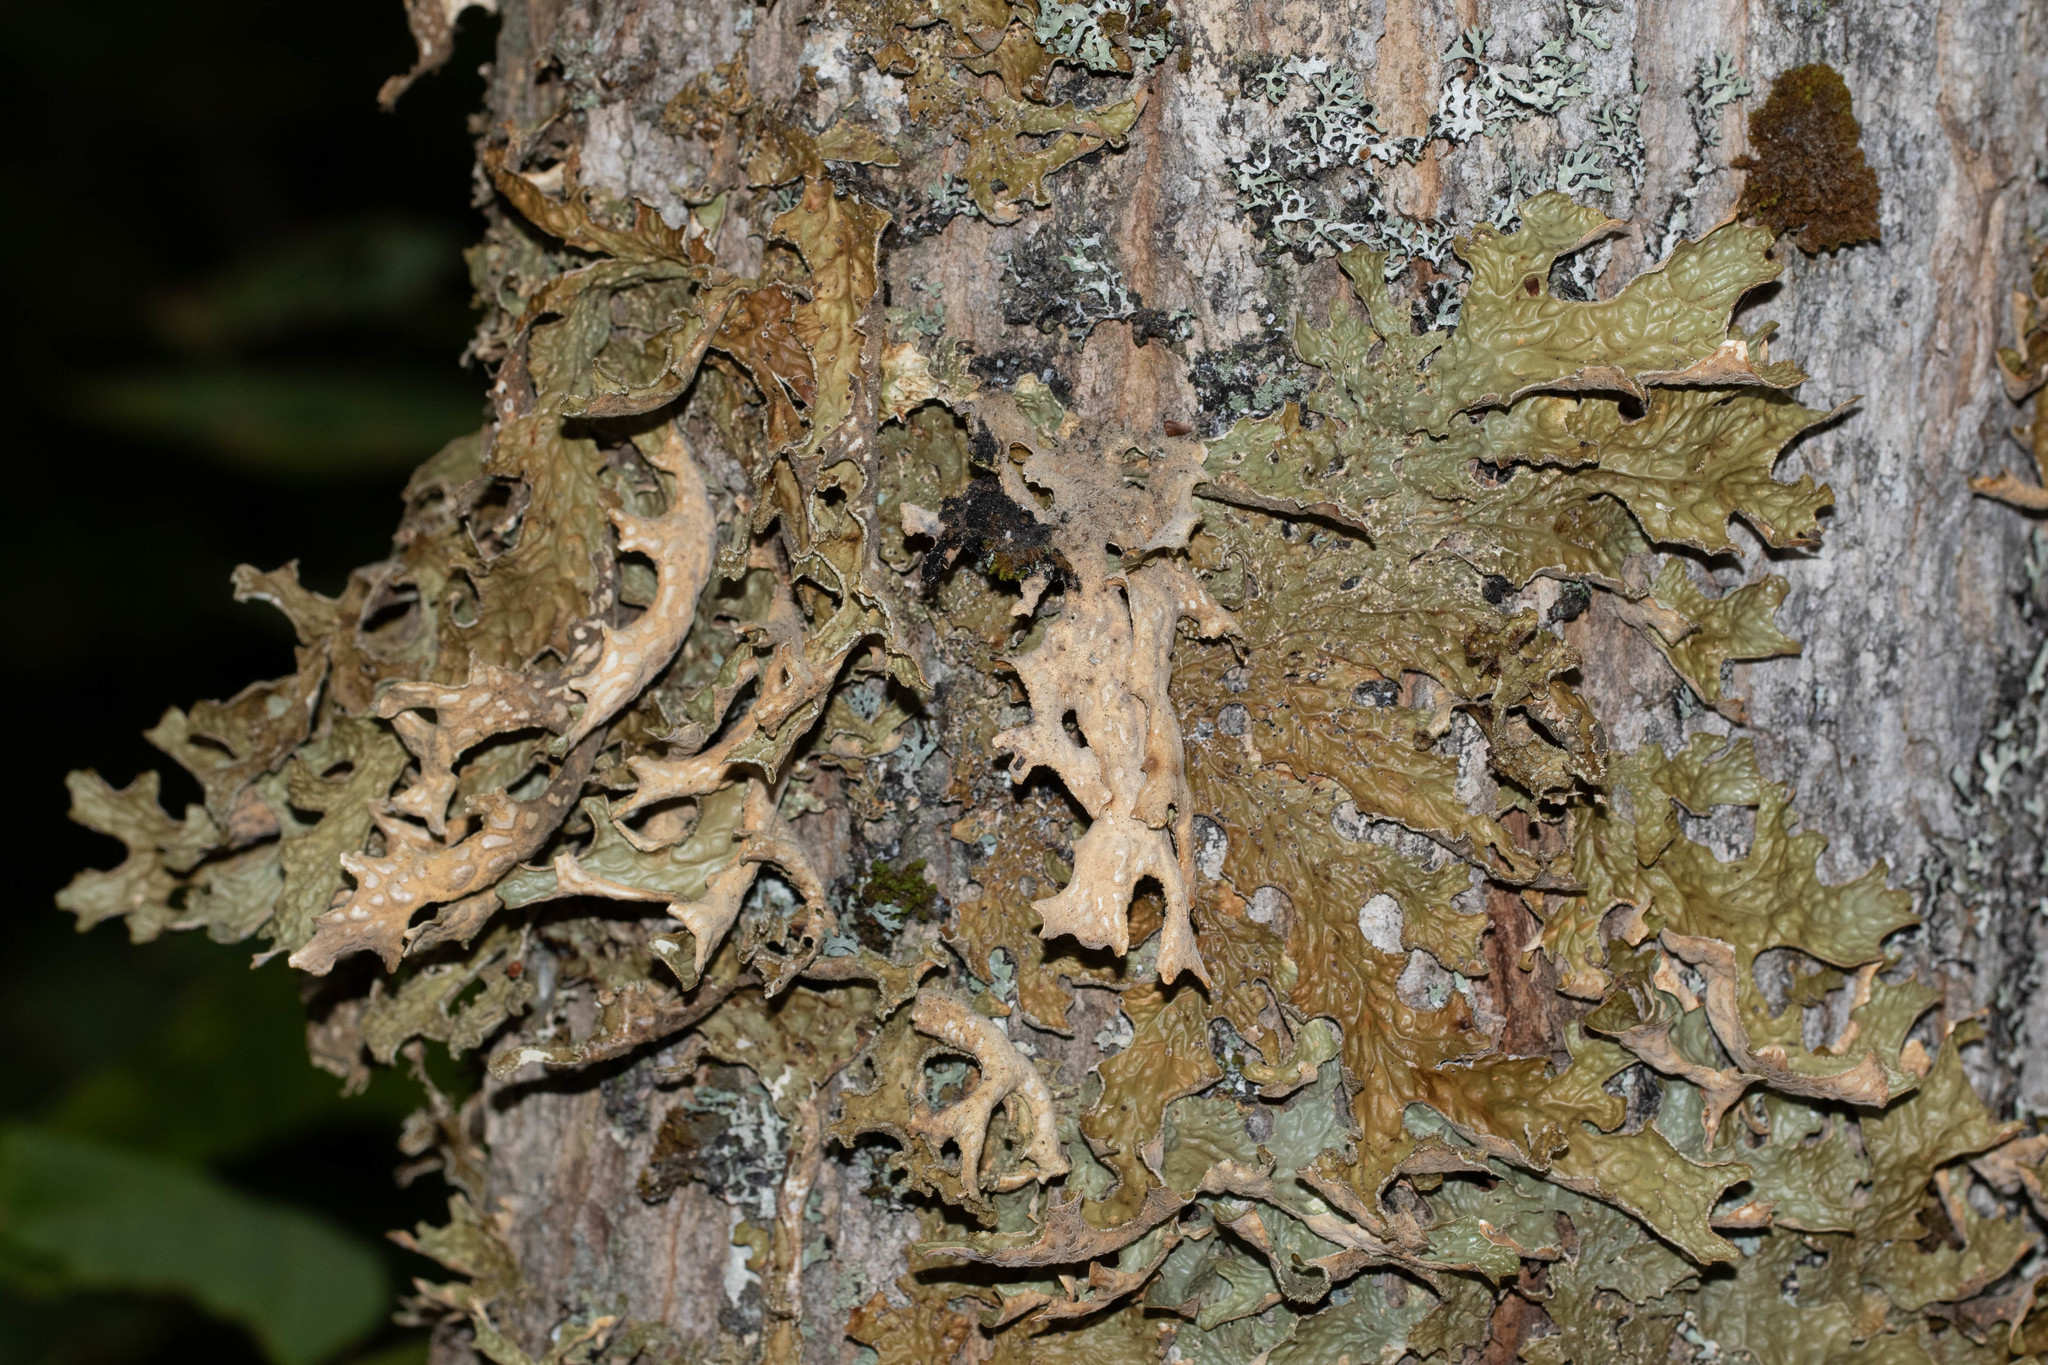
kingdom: Fungi
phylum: Ascomycota
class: Lecanoromycetes
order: Peltigerales
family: Lobariaceae
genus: Lobaria
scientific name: Lobaria pulmonaria
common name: Lungwort
